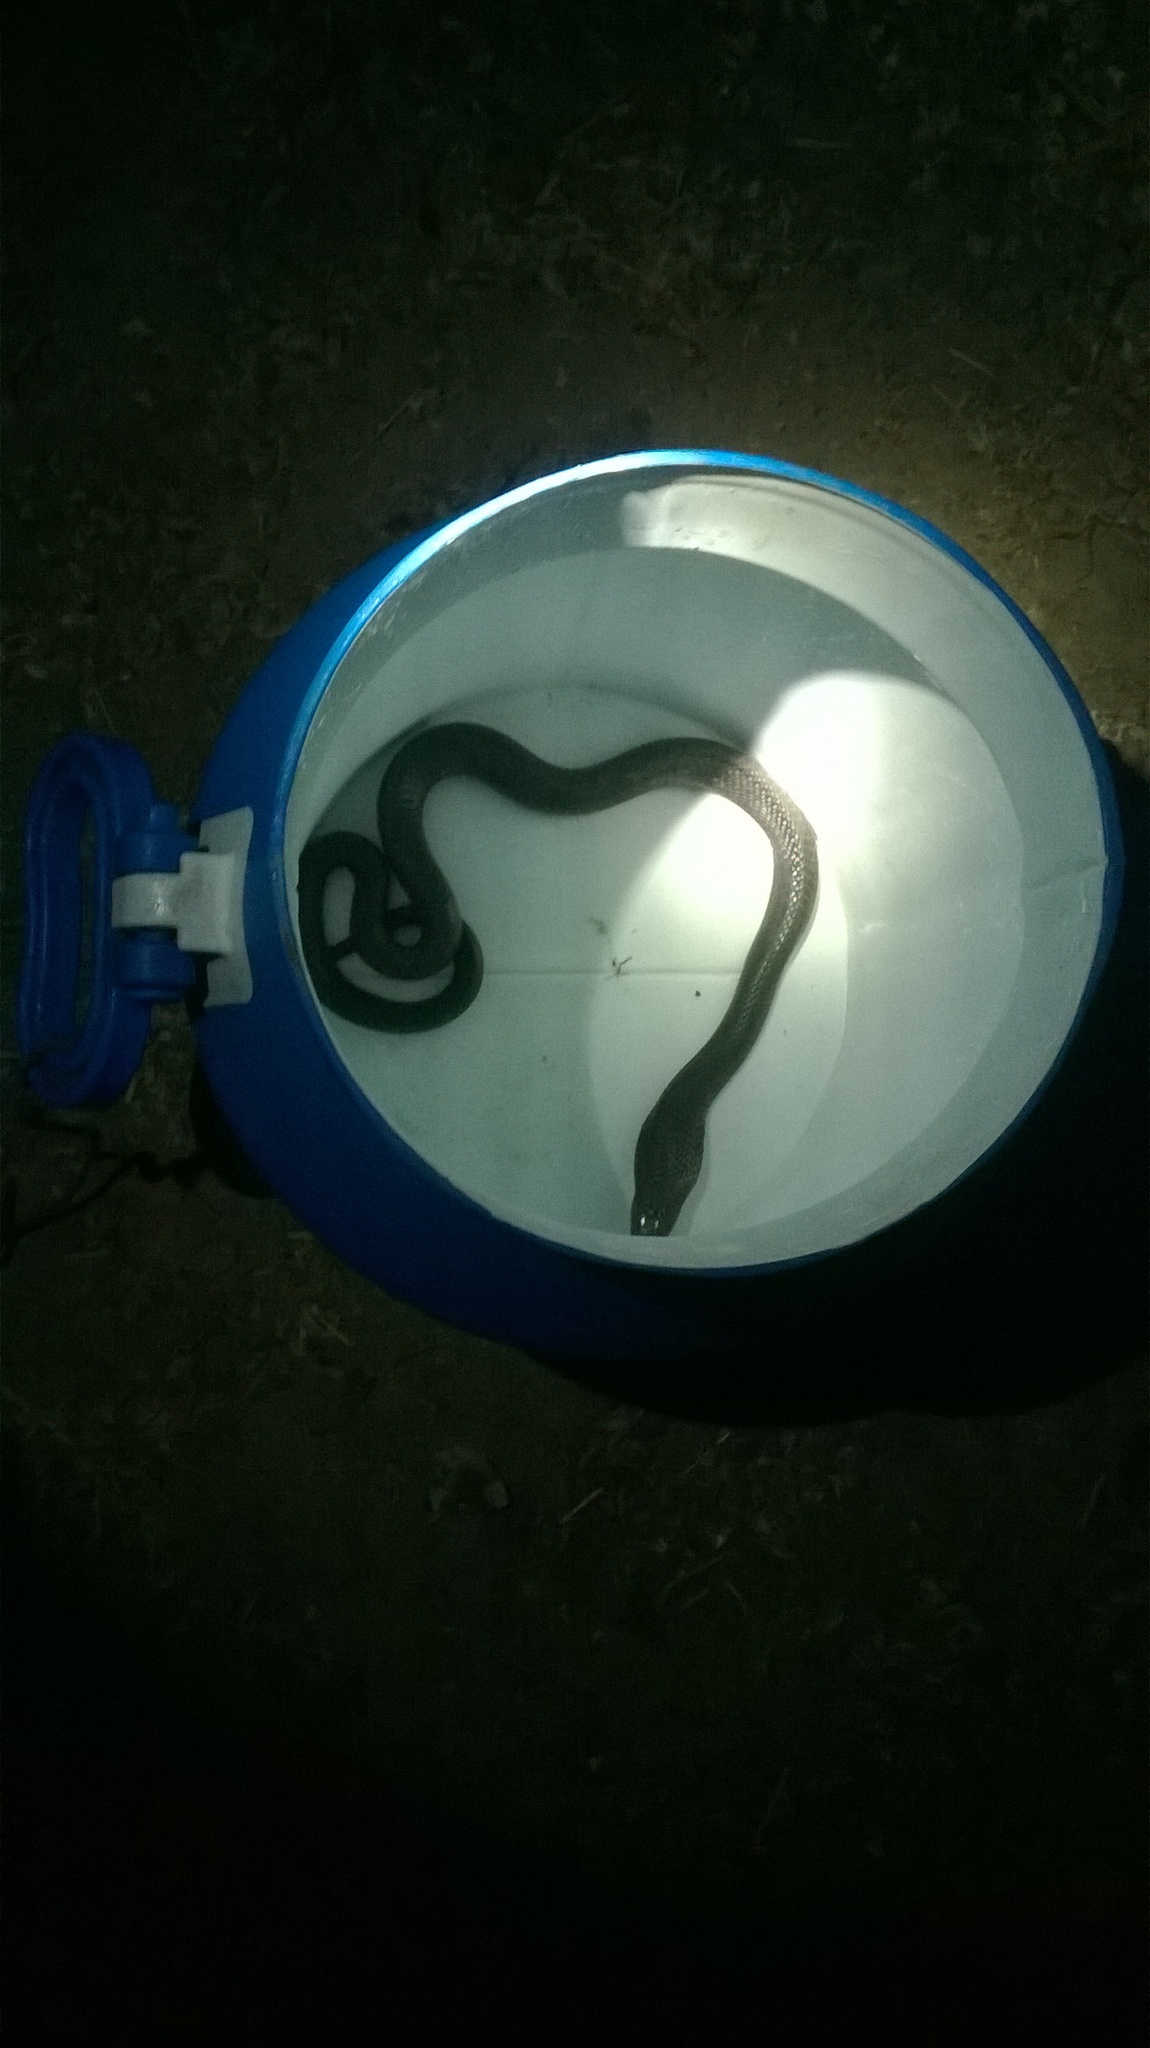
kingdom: Animalia
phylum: Chordata
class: Squamata
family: Elapidae
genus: Naja
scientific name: Naja naja
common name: Indian cobra
